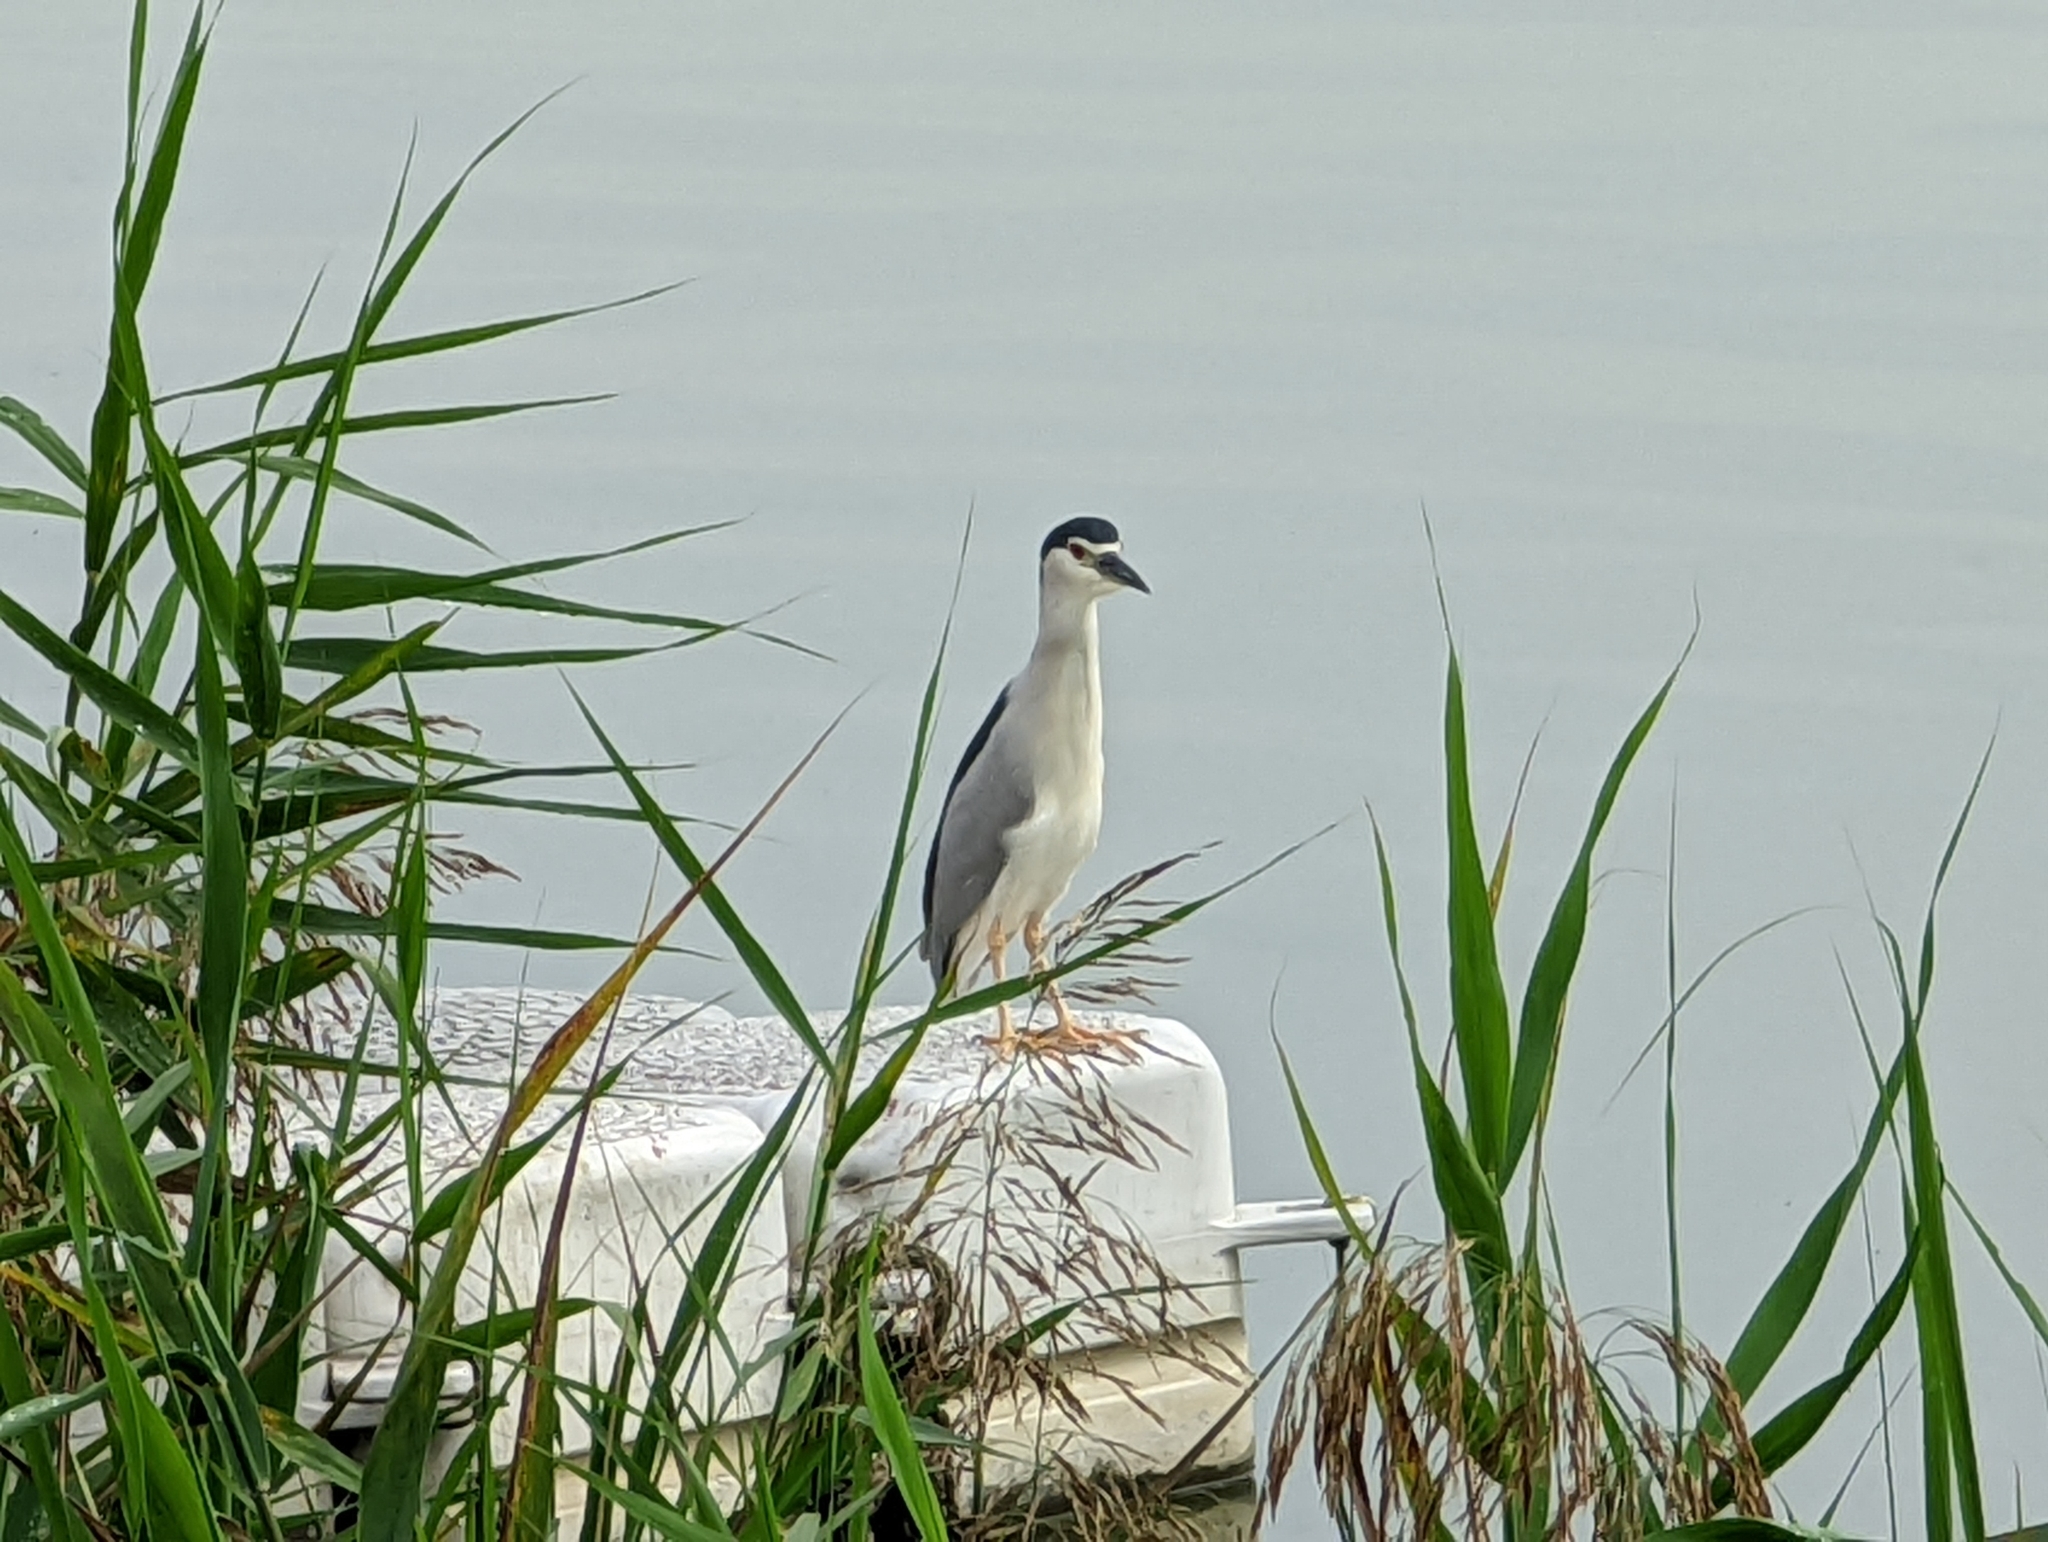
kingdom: Animalia
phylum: Chordata
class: Aves
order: Pelecaniformes
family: Ardeidae
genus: Nycticorax
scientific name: Nycticorax nycticorax
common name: Black-crowned night heron
